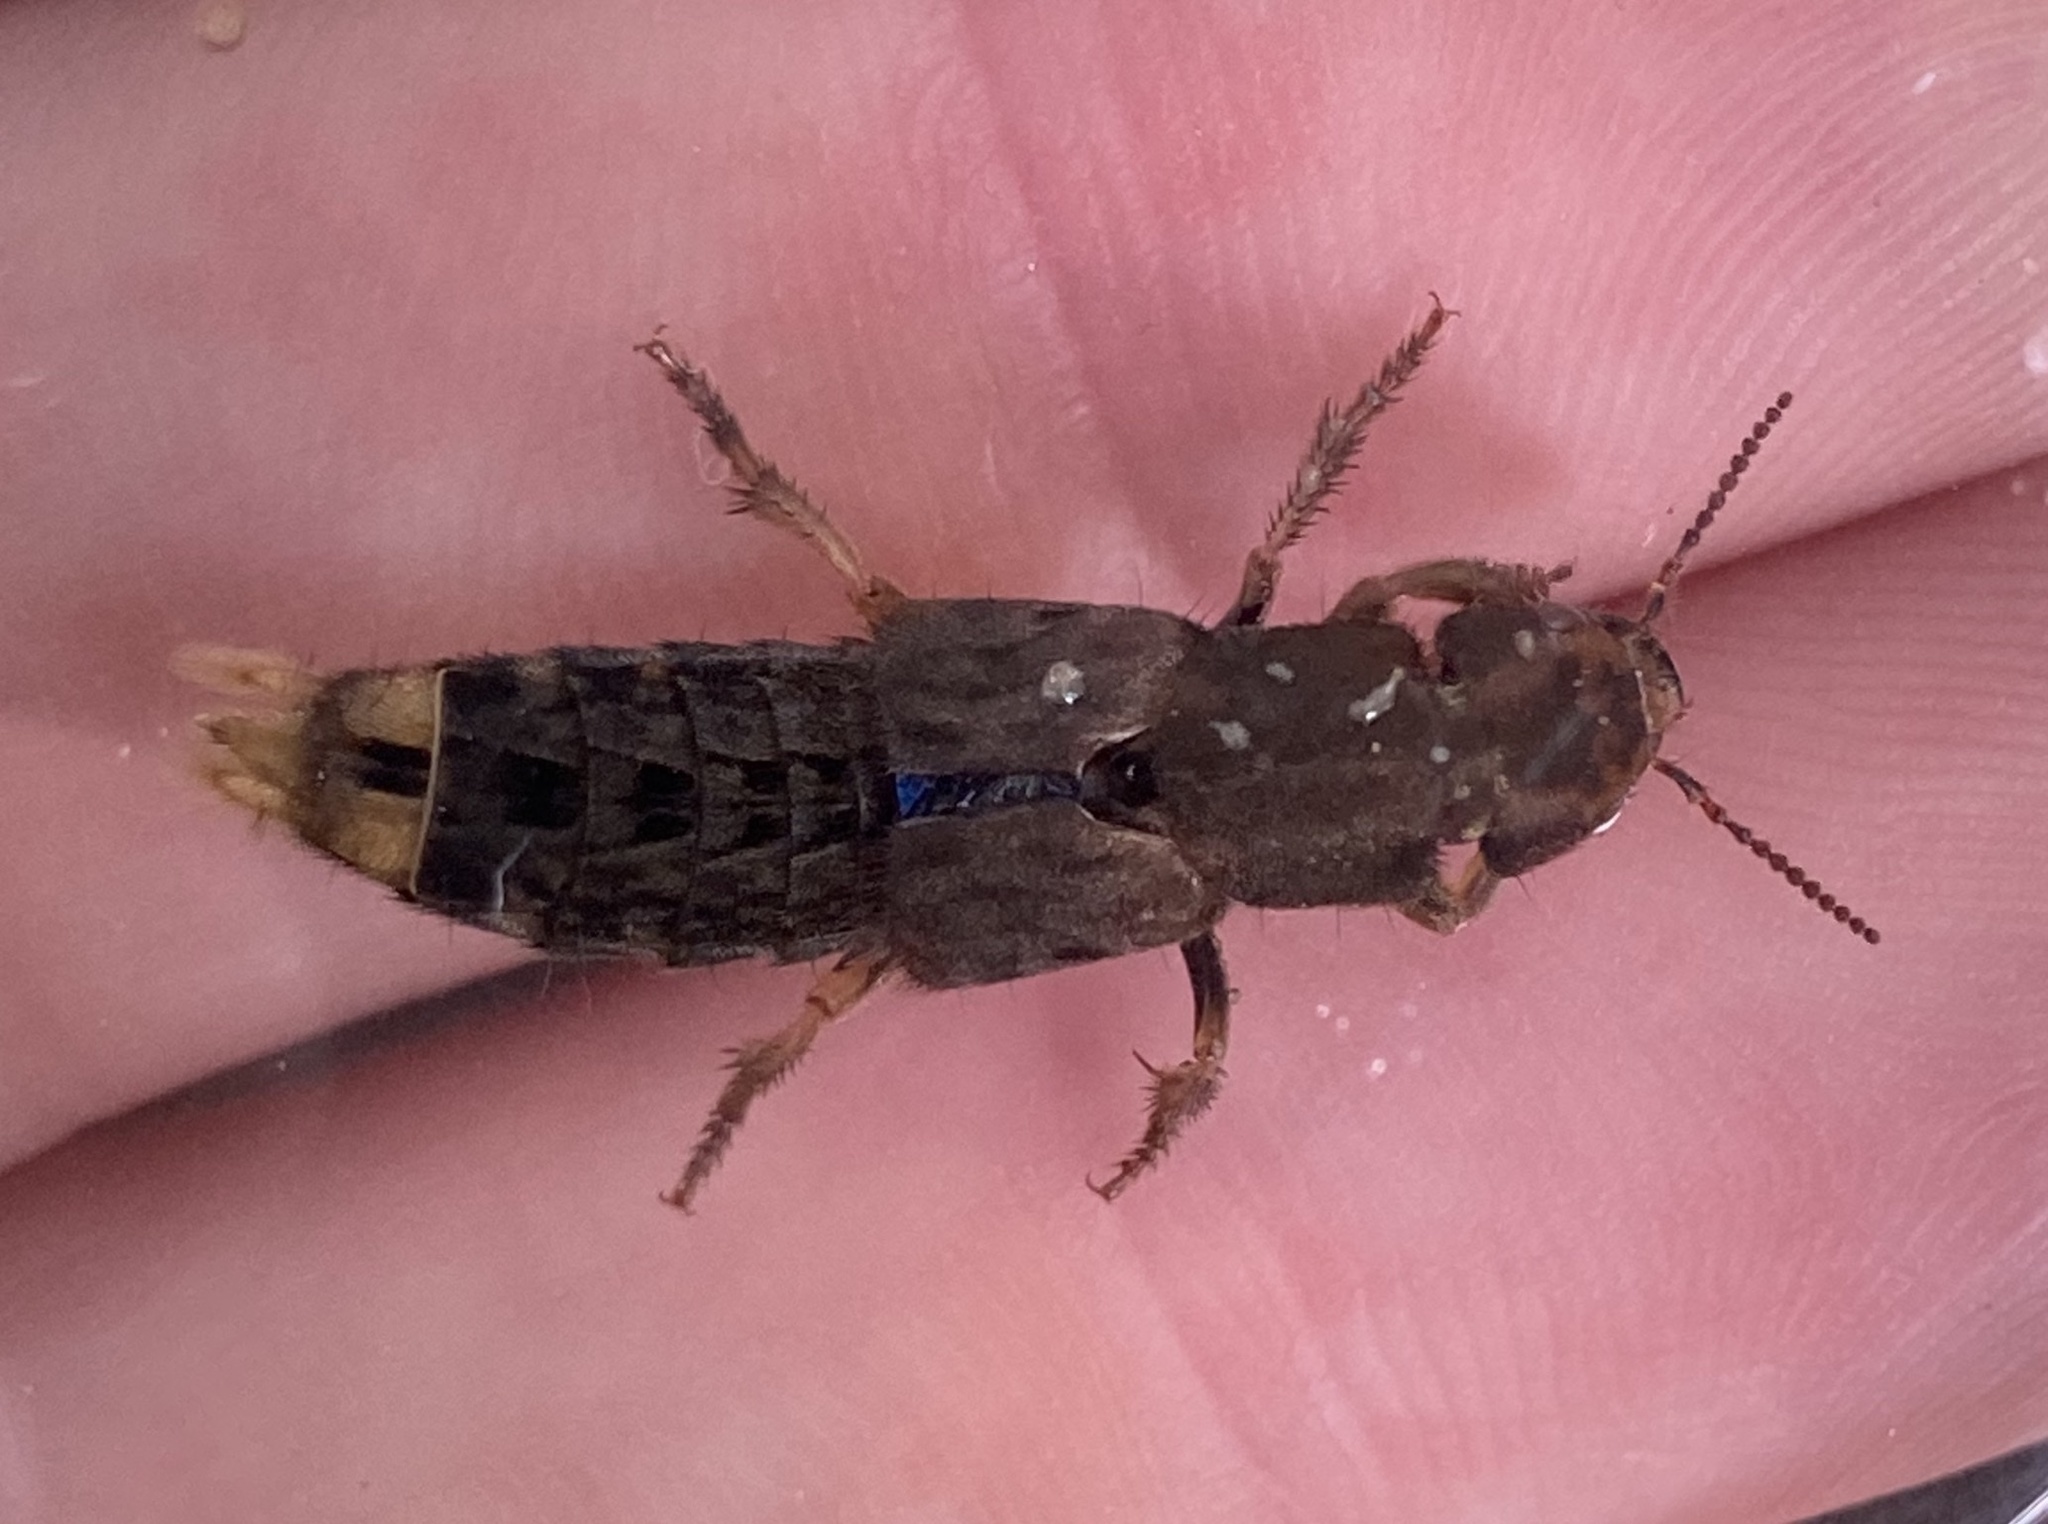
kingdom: Animalia
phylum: Arthropoda
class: Insecta
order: Coleoptera
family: Staphylinidae
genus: Platydracus
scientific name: Platydracus maculosus
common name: Brown rove beetle
